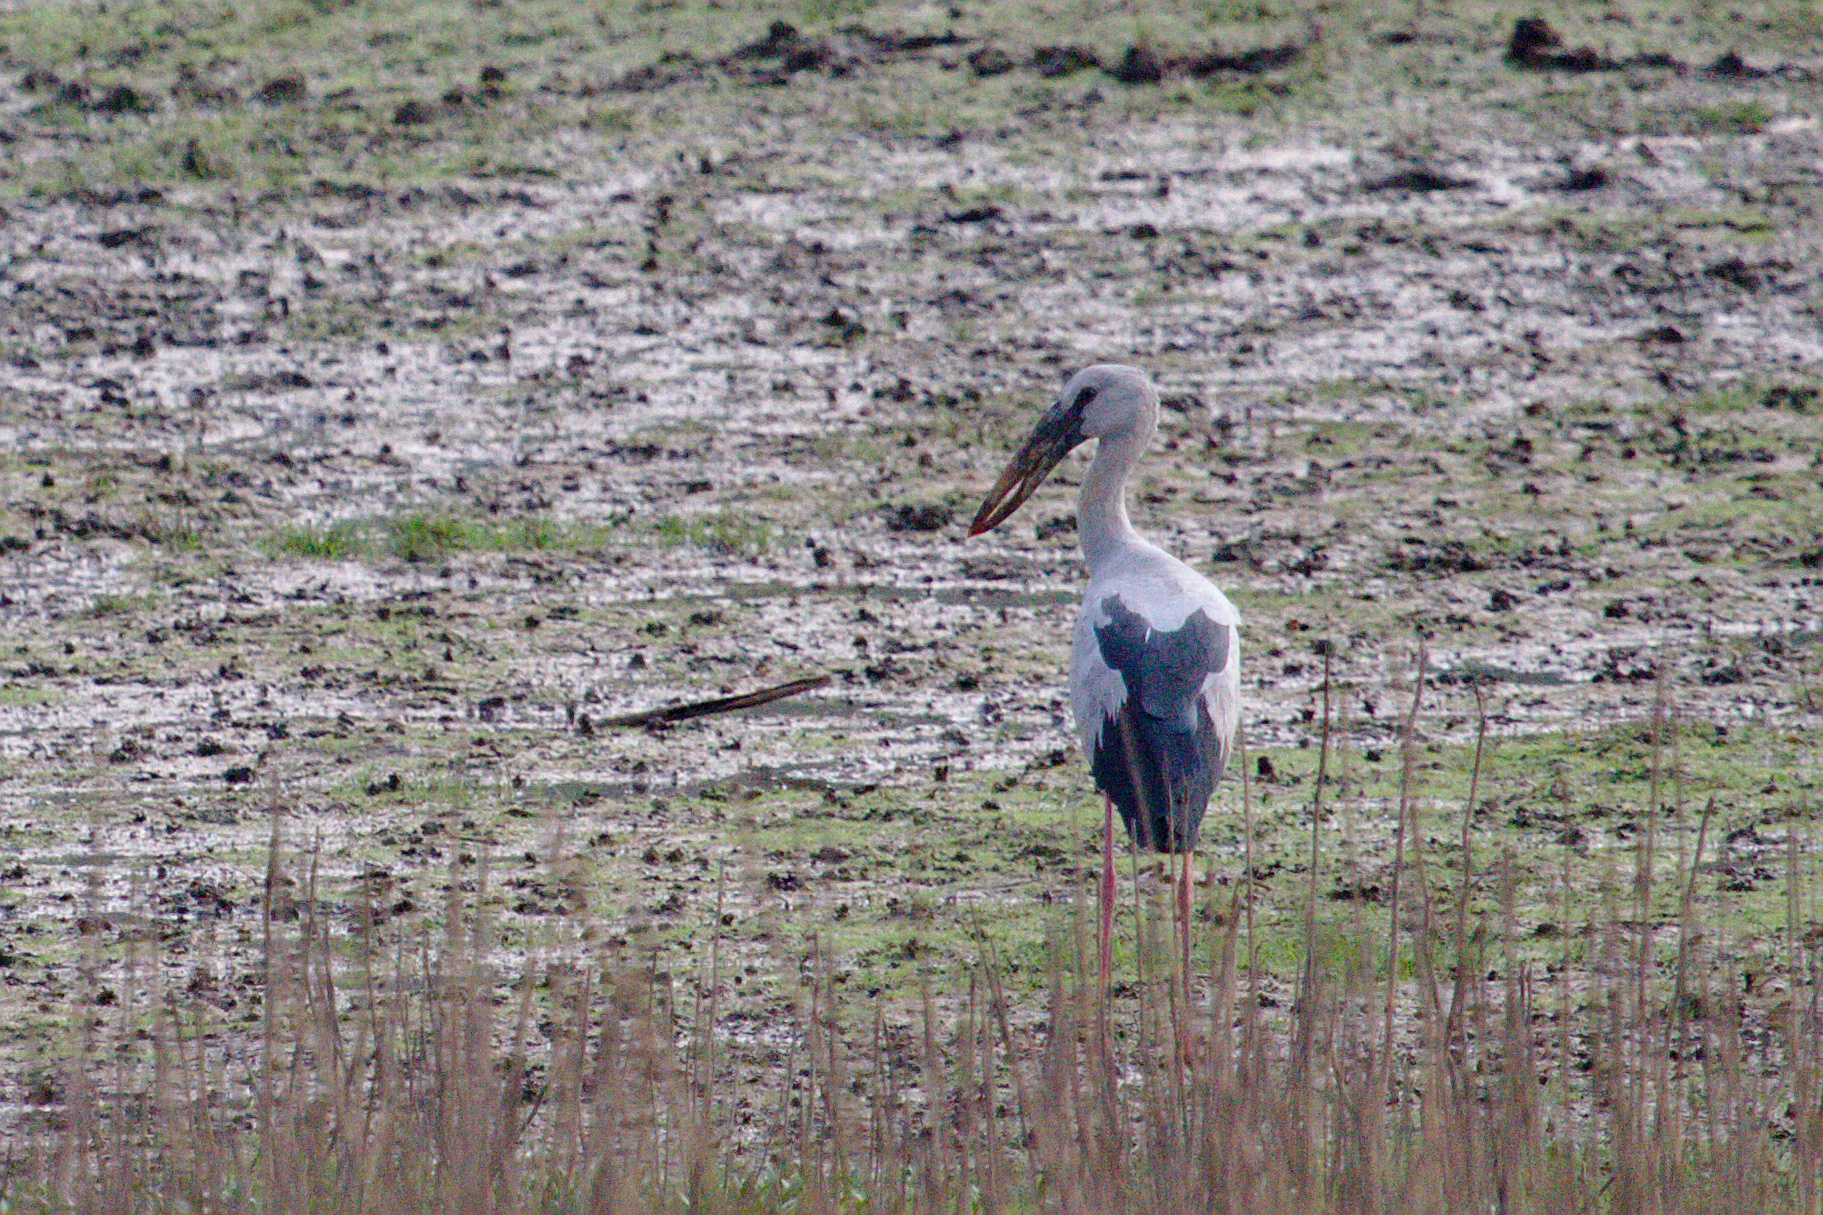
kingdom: Animalia
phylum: Chordata
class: Aves
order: Ciconiiformes
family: Ciconiidae
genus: Anastomus
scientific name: Anastomus oscitans
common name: Asian openbill
